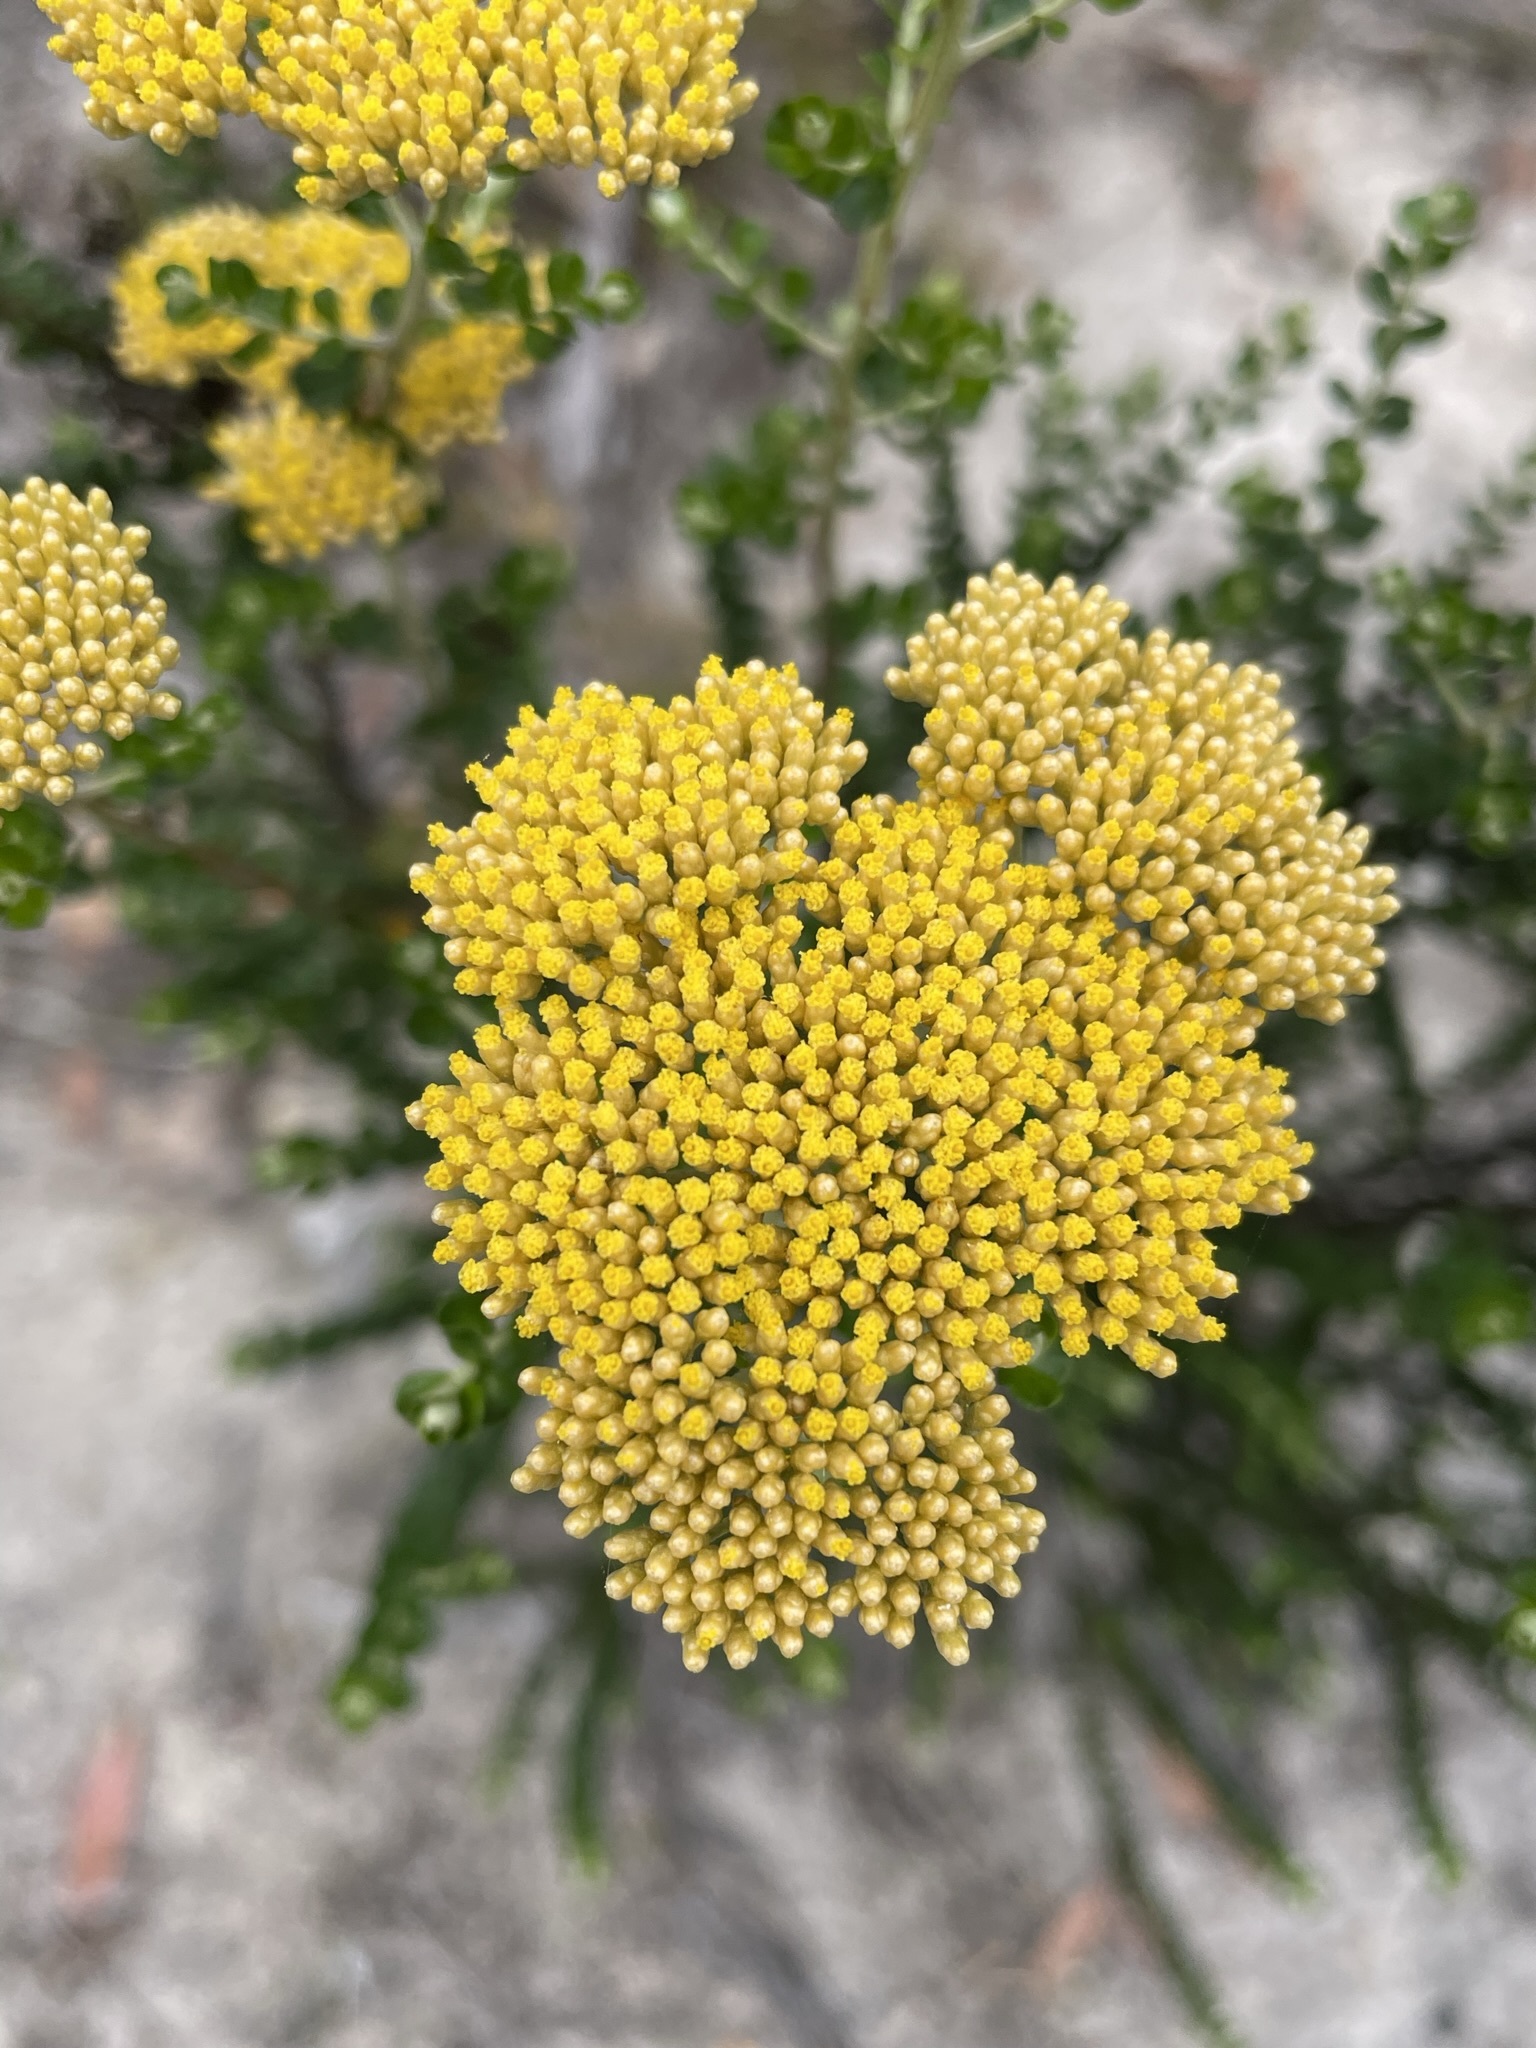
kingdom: Plantae
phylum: Tracheophyta
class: Magnoliopsida
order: Asterales
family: Asteraceae
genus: Ozothamnus
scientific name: Ozothamnus obcordatus
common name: Grey everlasting
